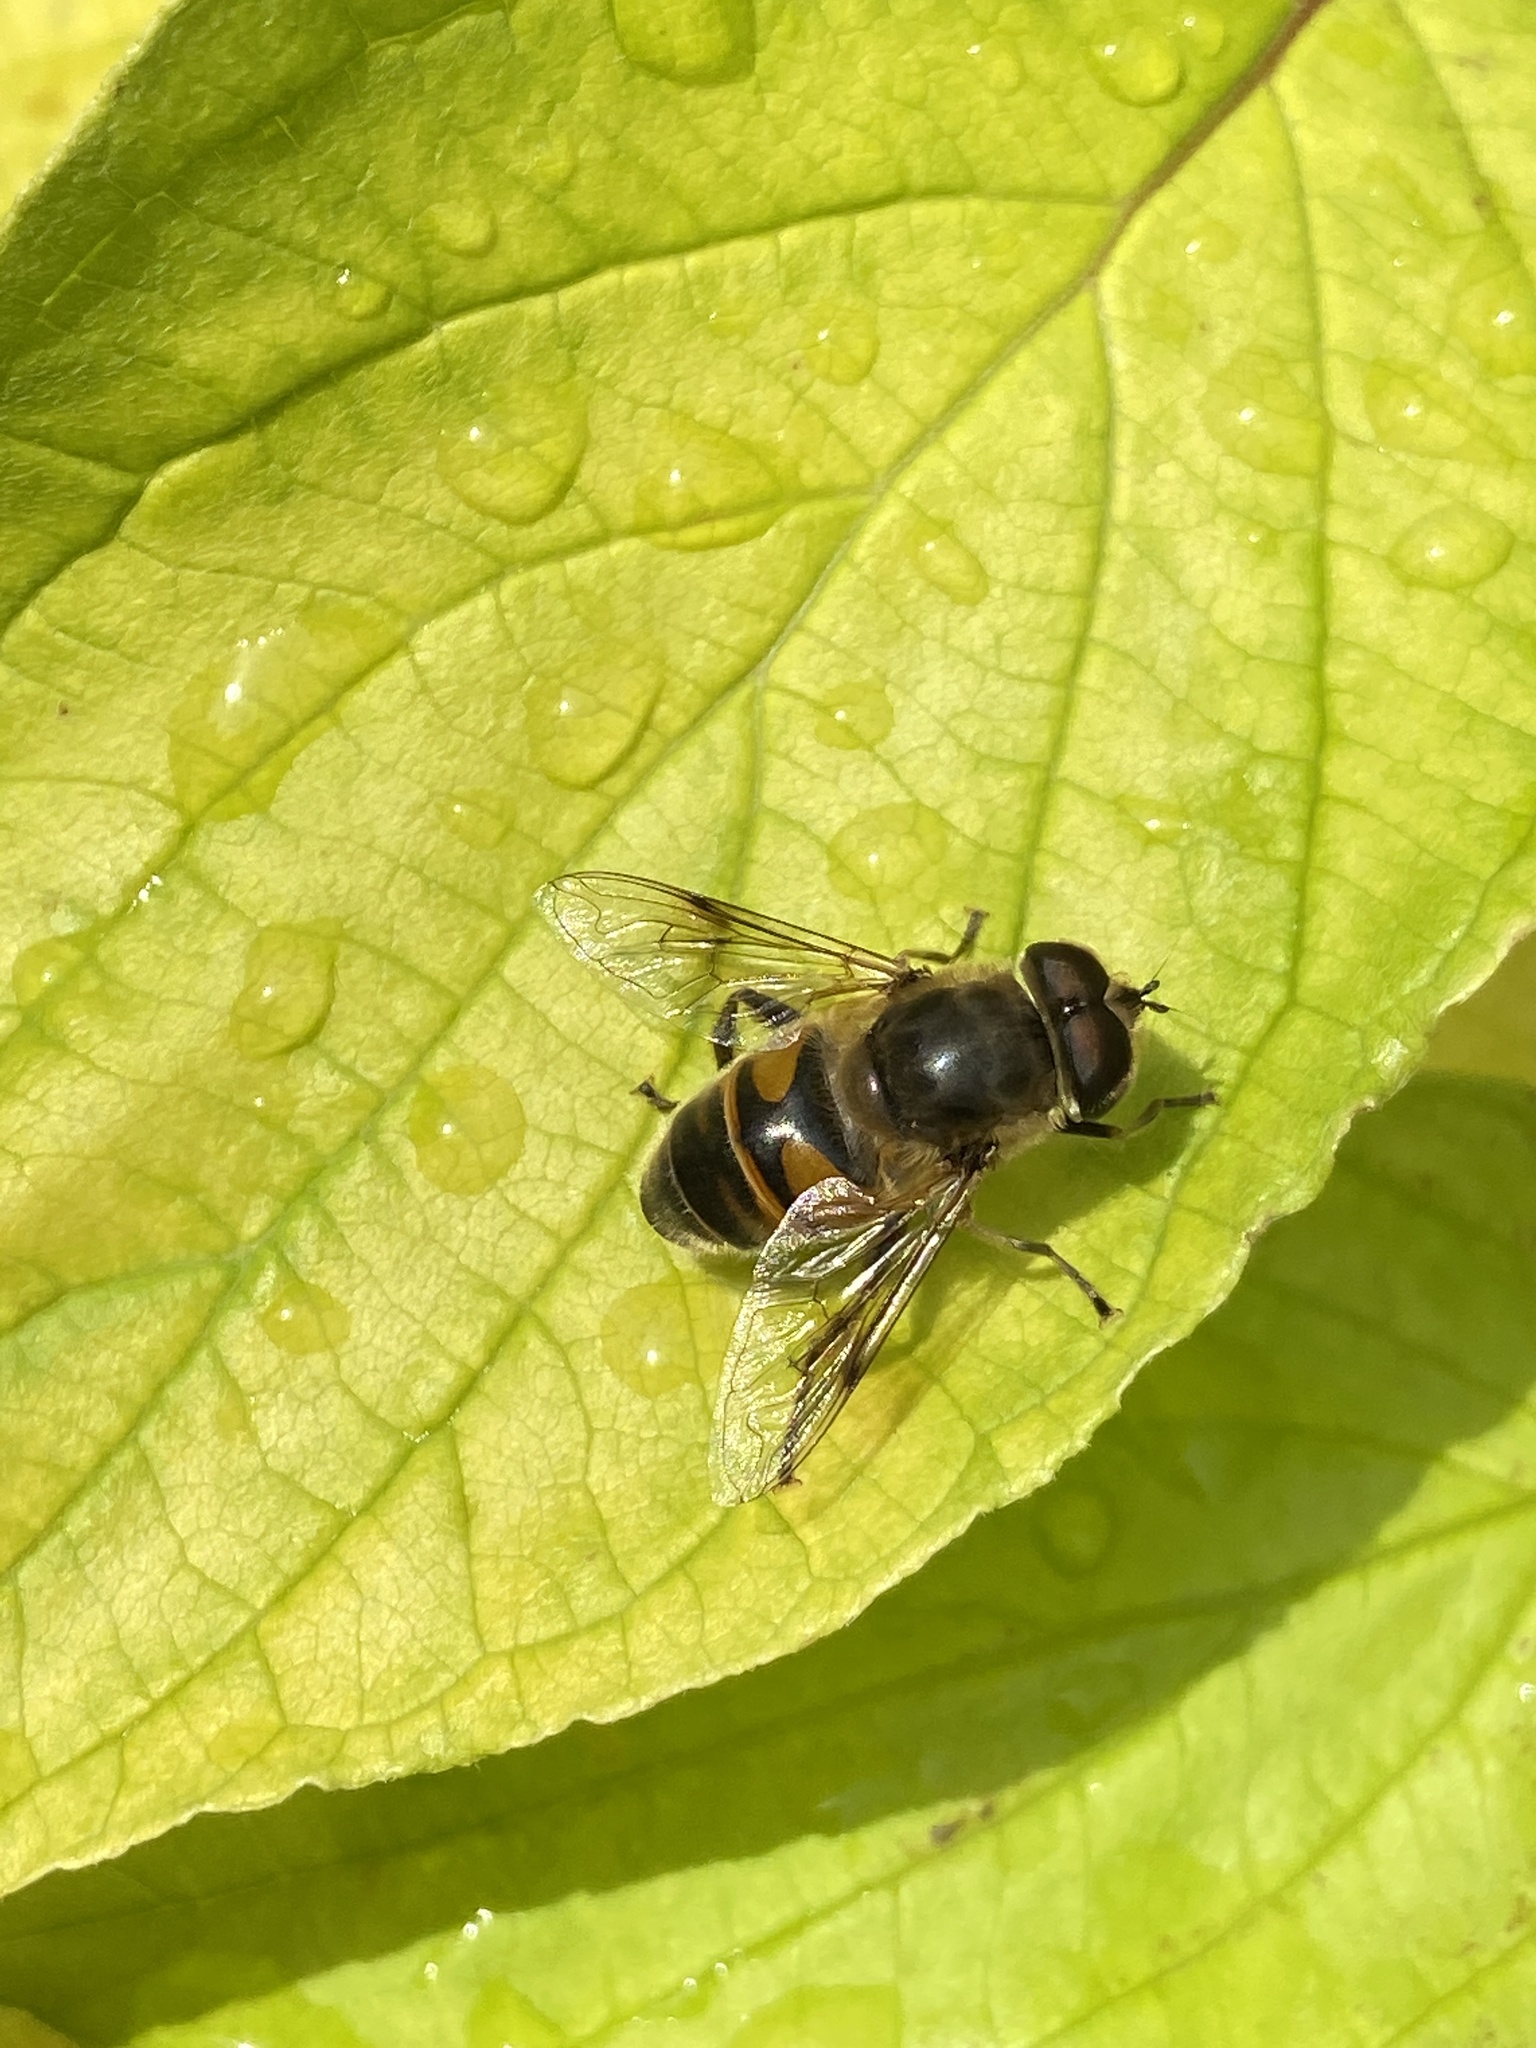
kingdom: Animalia
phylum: Arthropoda
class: Insecta
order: Diptera
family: Syrphidae
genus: Eristalis
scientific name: Eristalis tenax
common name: Drone fly
